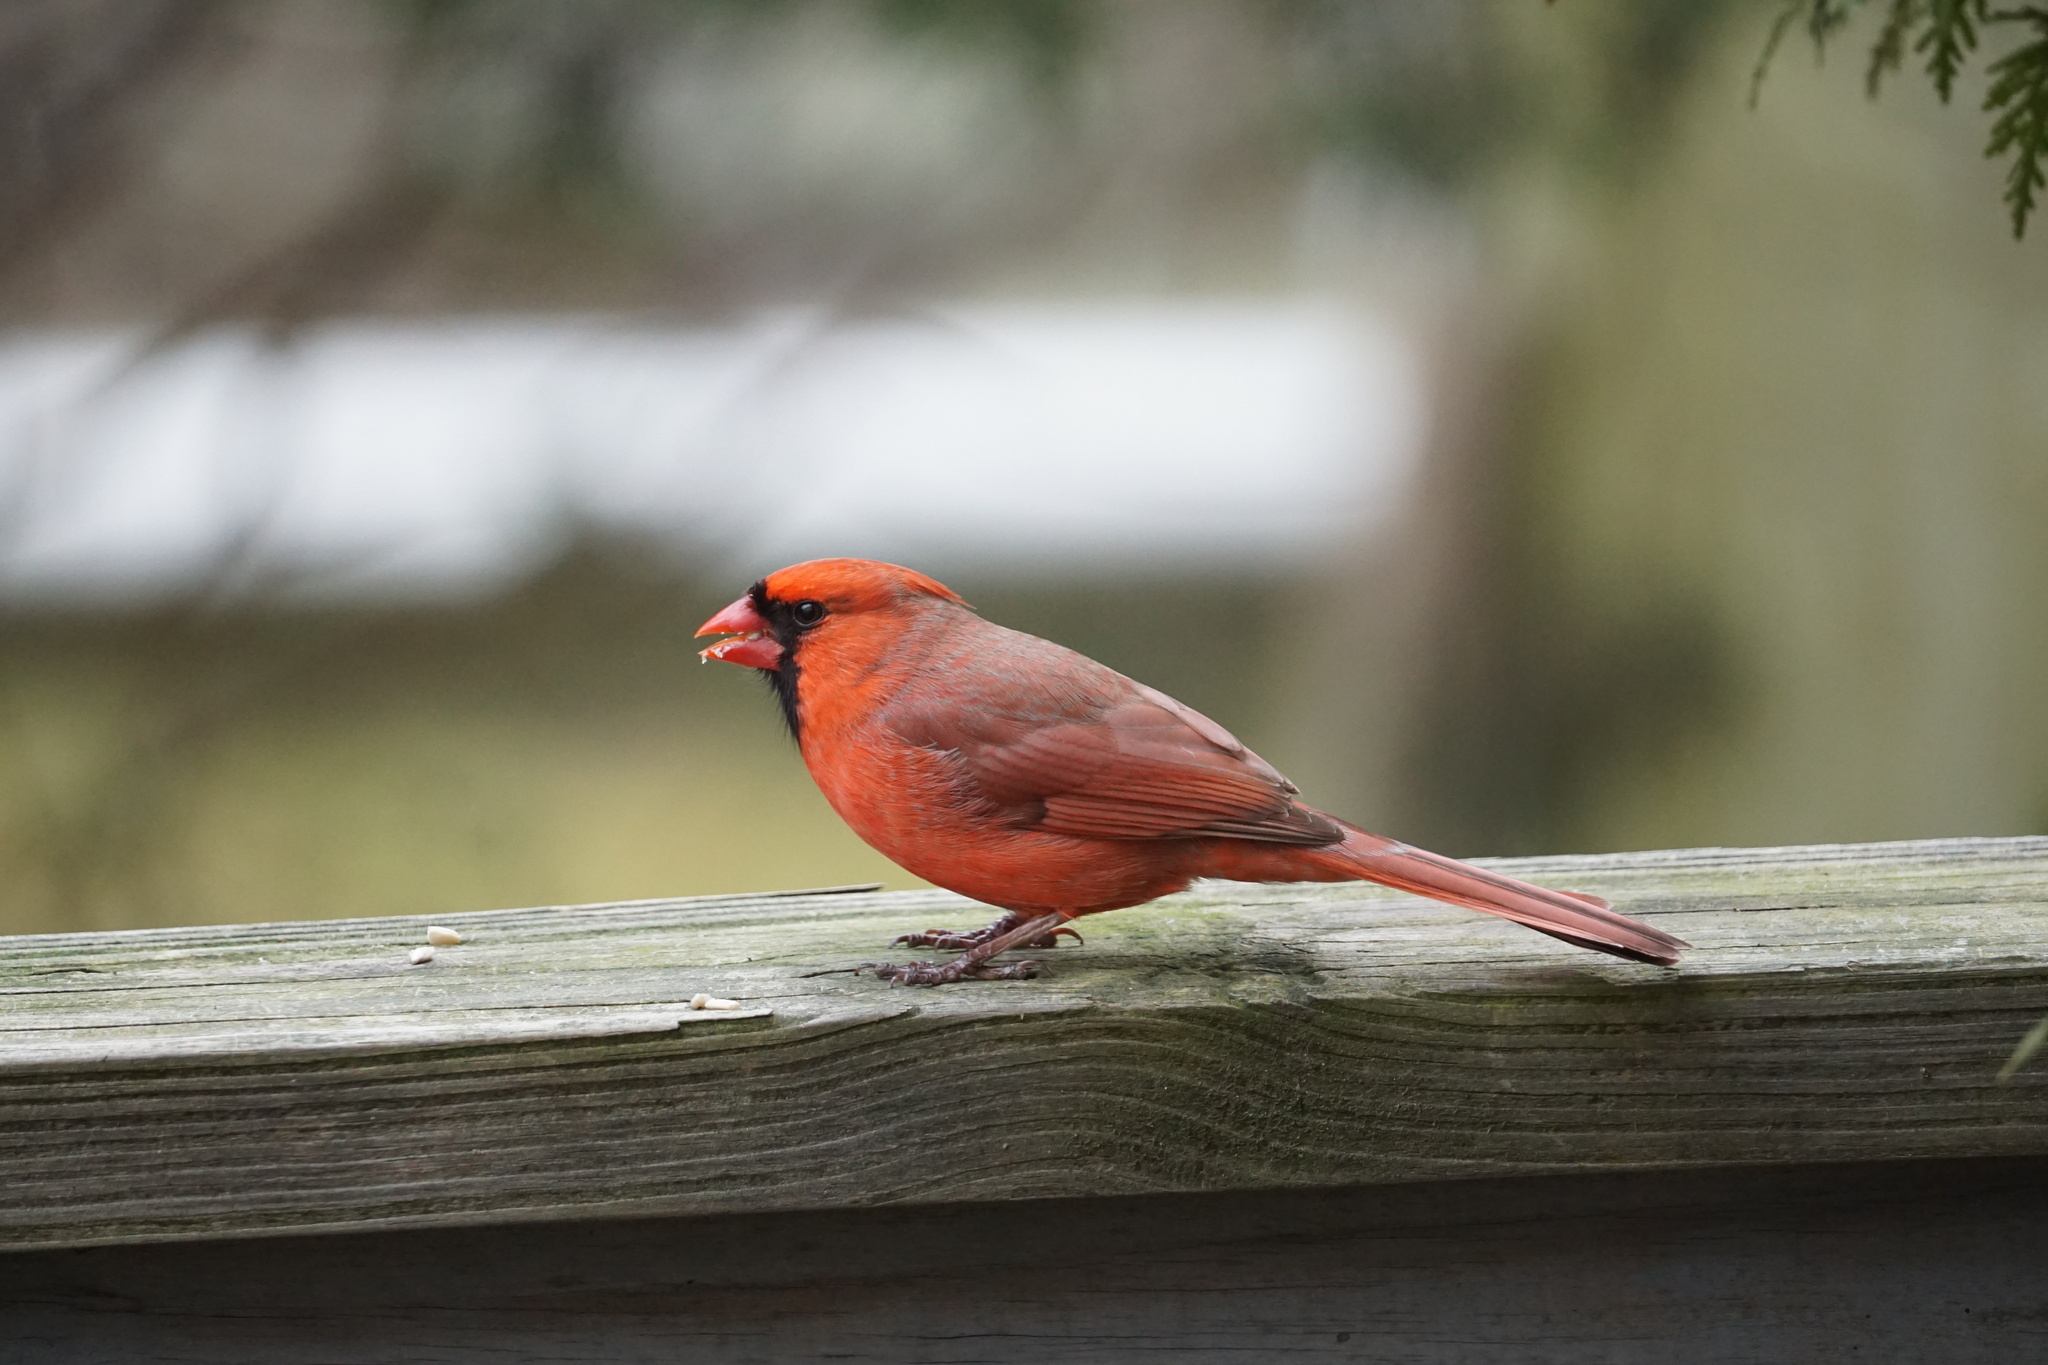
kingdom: Animalia
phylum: Chordata
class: Aves
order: Passeriformes
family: Cardinalidae
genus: Cardinalis
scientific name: Cardinalis cardinalis
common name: Northern cardinal
